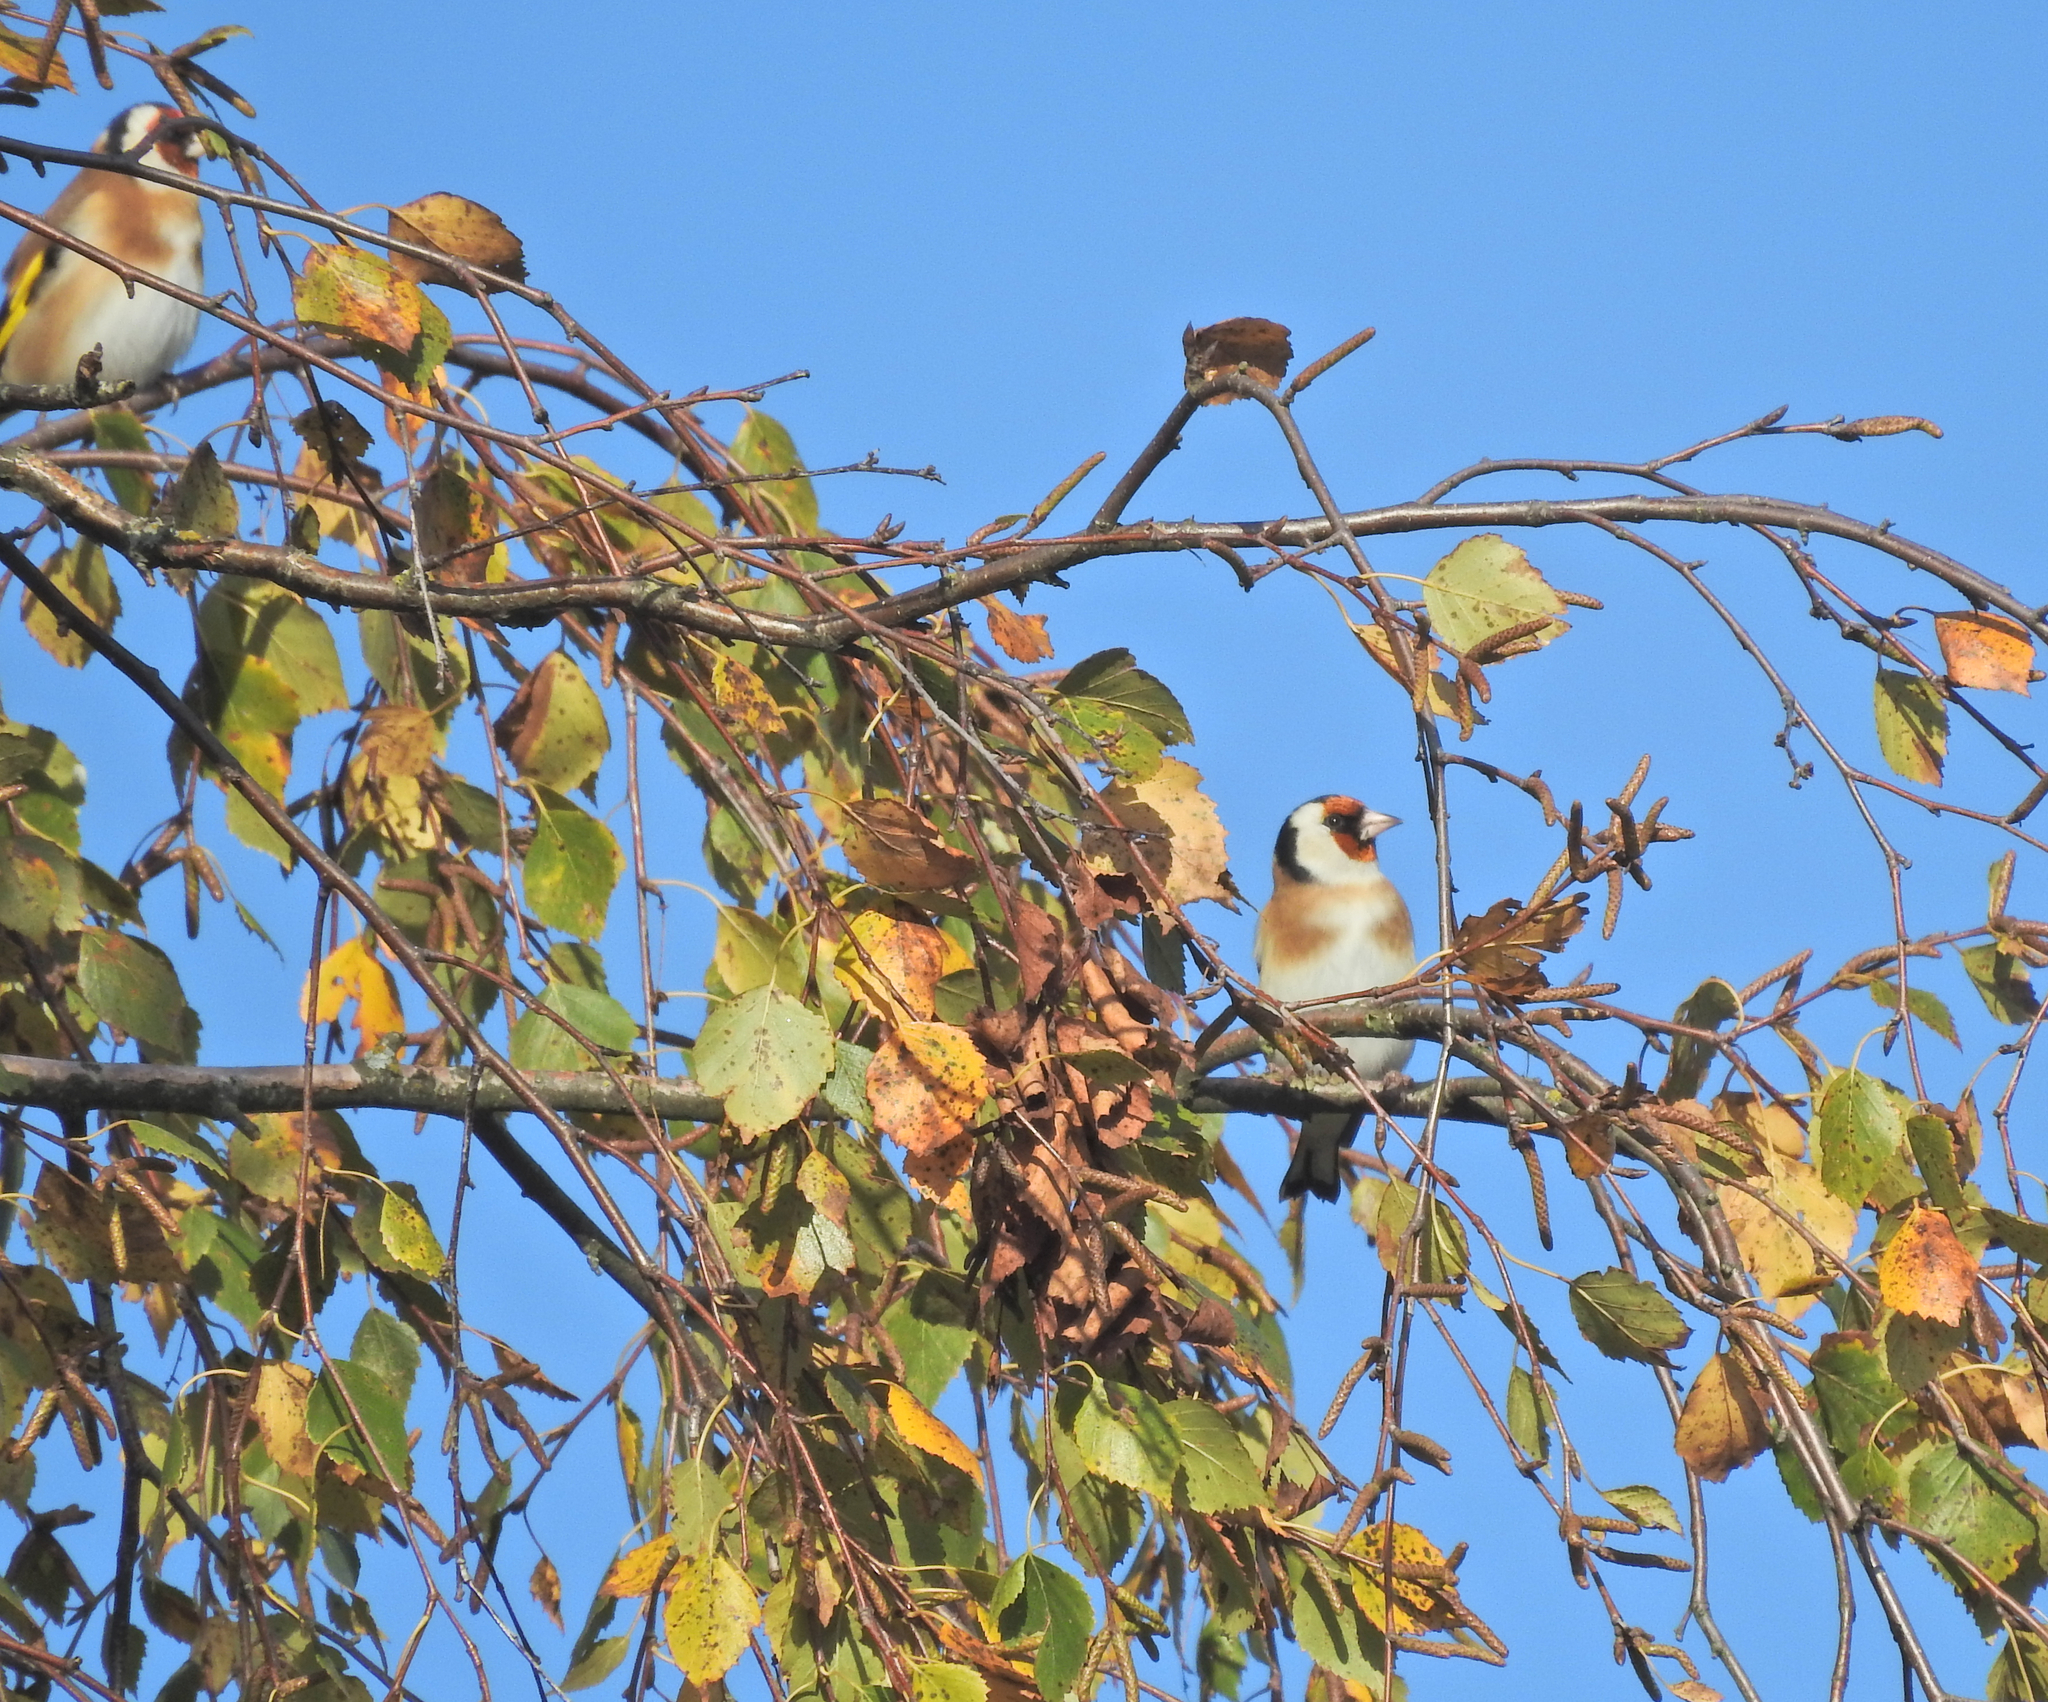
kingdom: Animalia
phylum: Chordata
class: Aves
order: Passeriformes
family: Fringillidae
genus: Carduelis
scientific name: Carduelis carduelis
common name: European goldfinch
